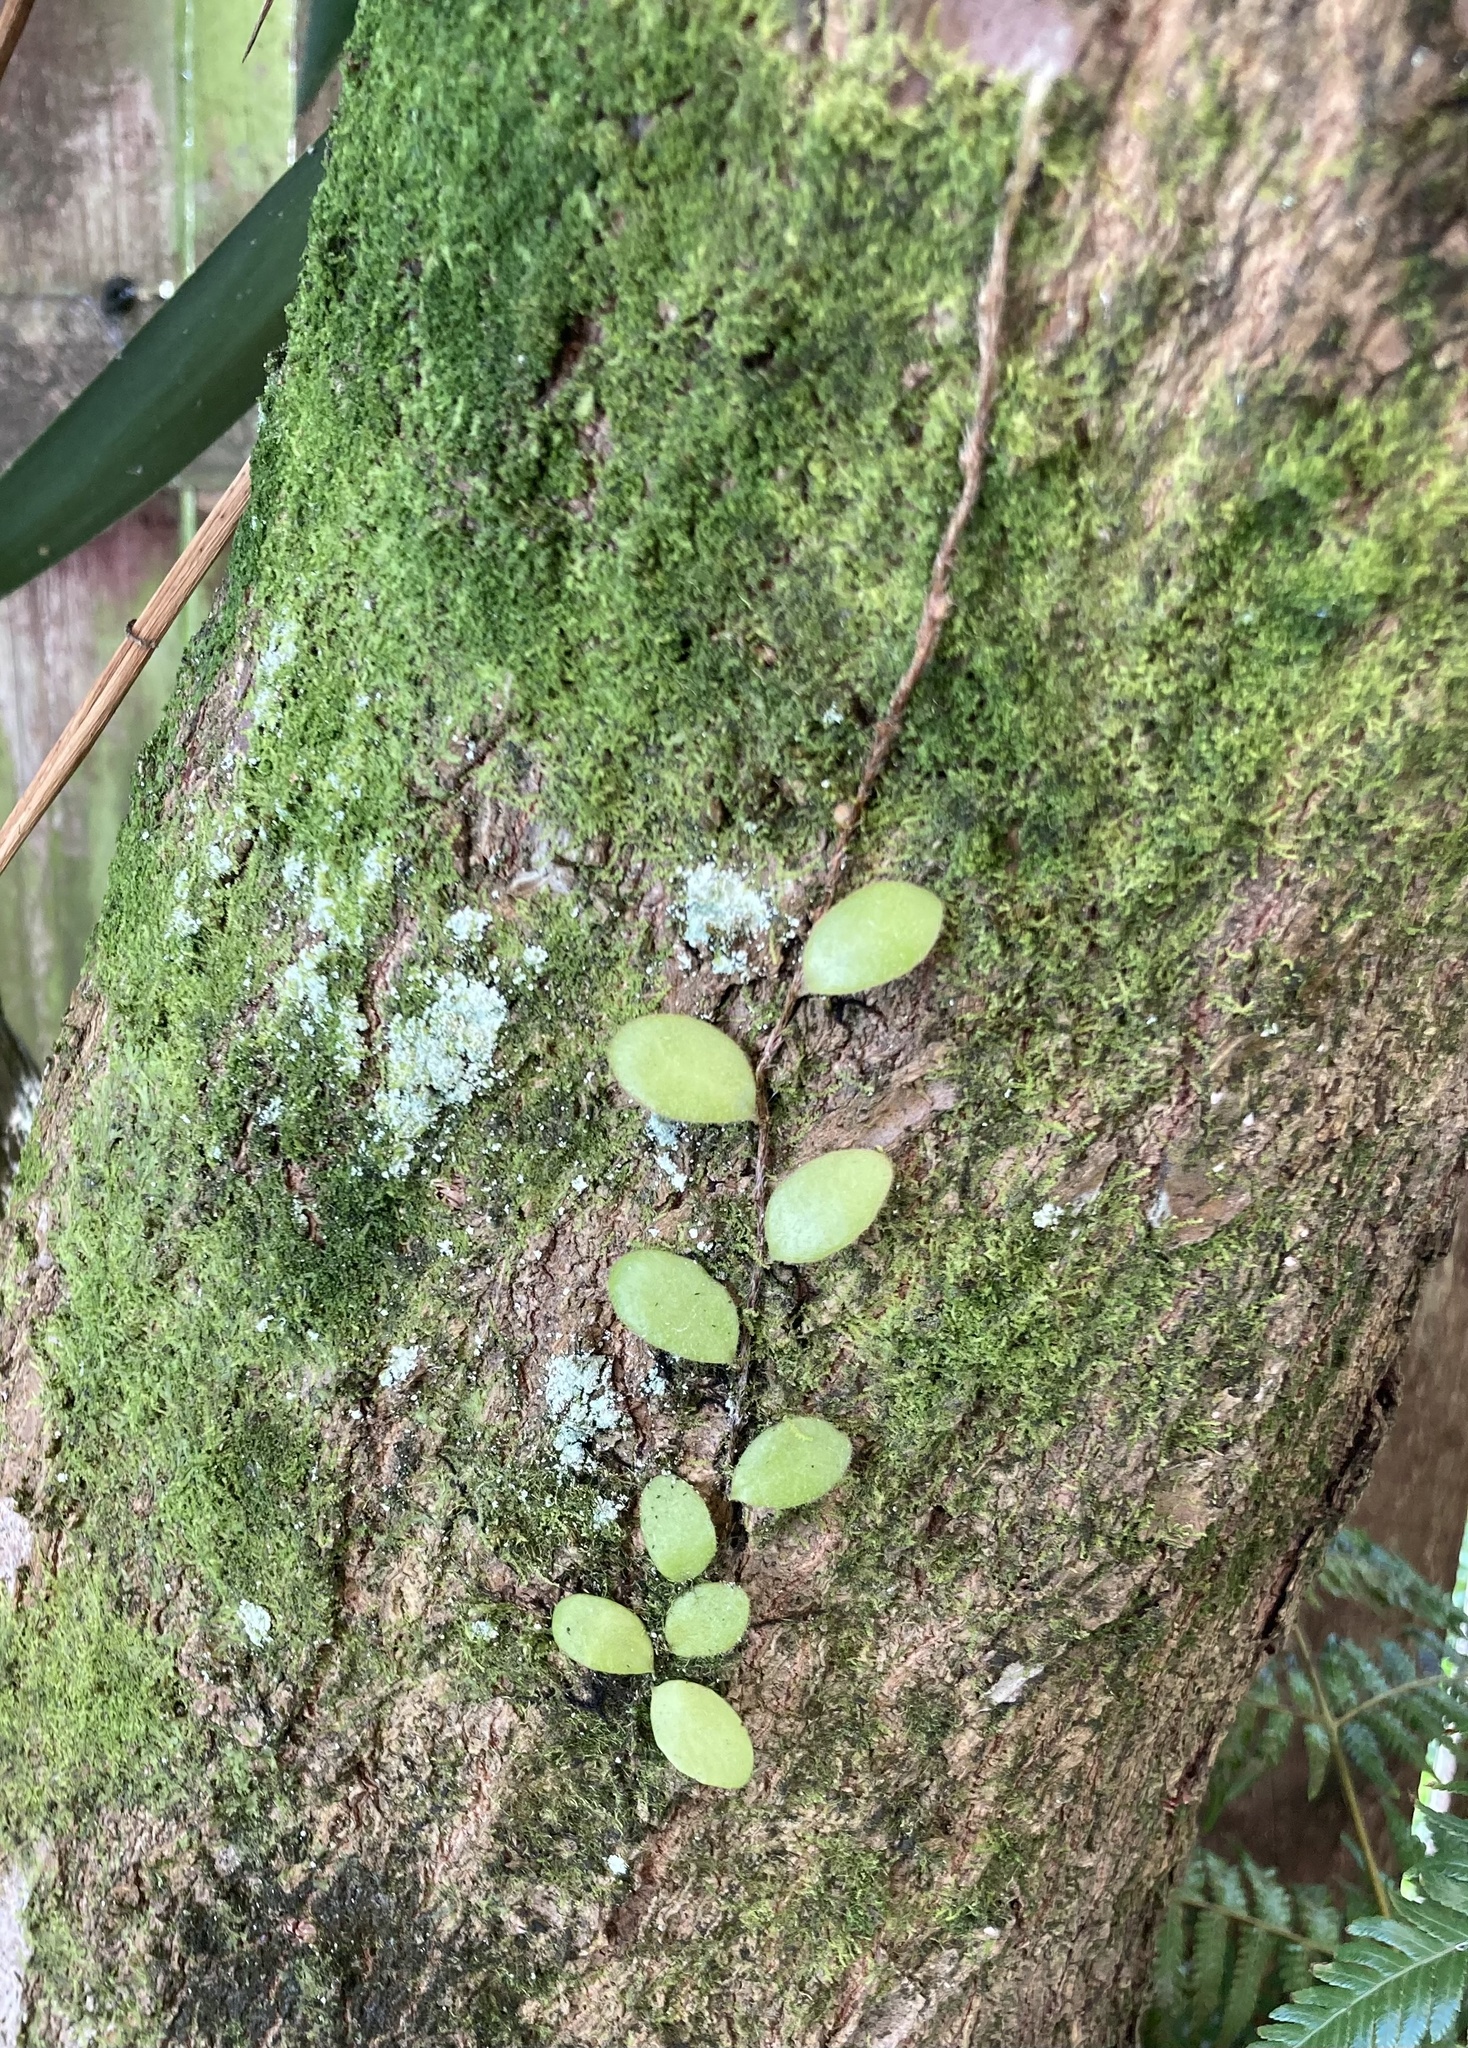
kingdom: Plantae
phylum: Tracheophyta
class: Polypodiopsida
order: Polypodiales
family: Polypodiaceae
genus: Pyrrosia
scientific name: Pyrrosia eleagnifolia
